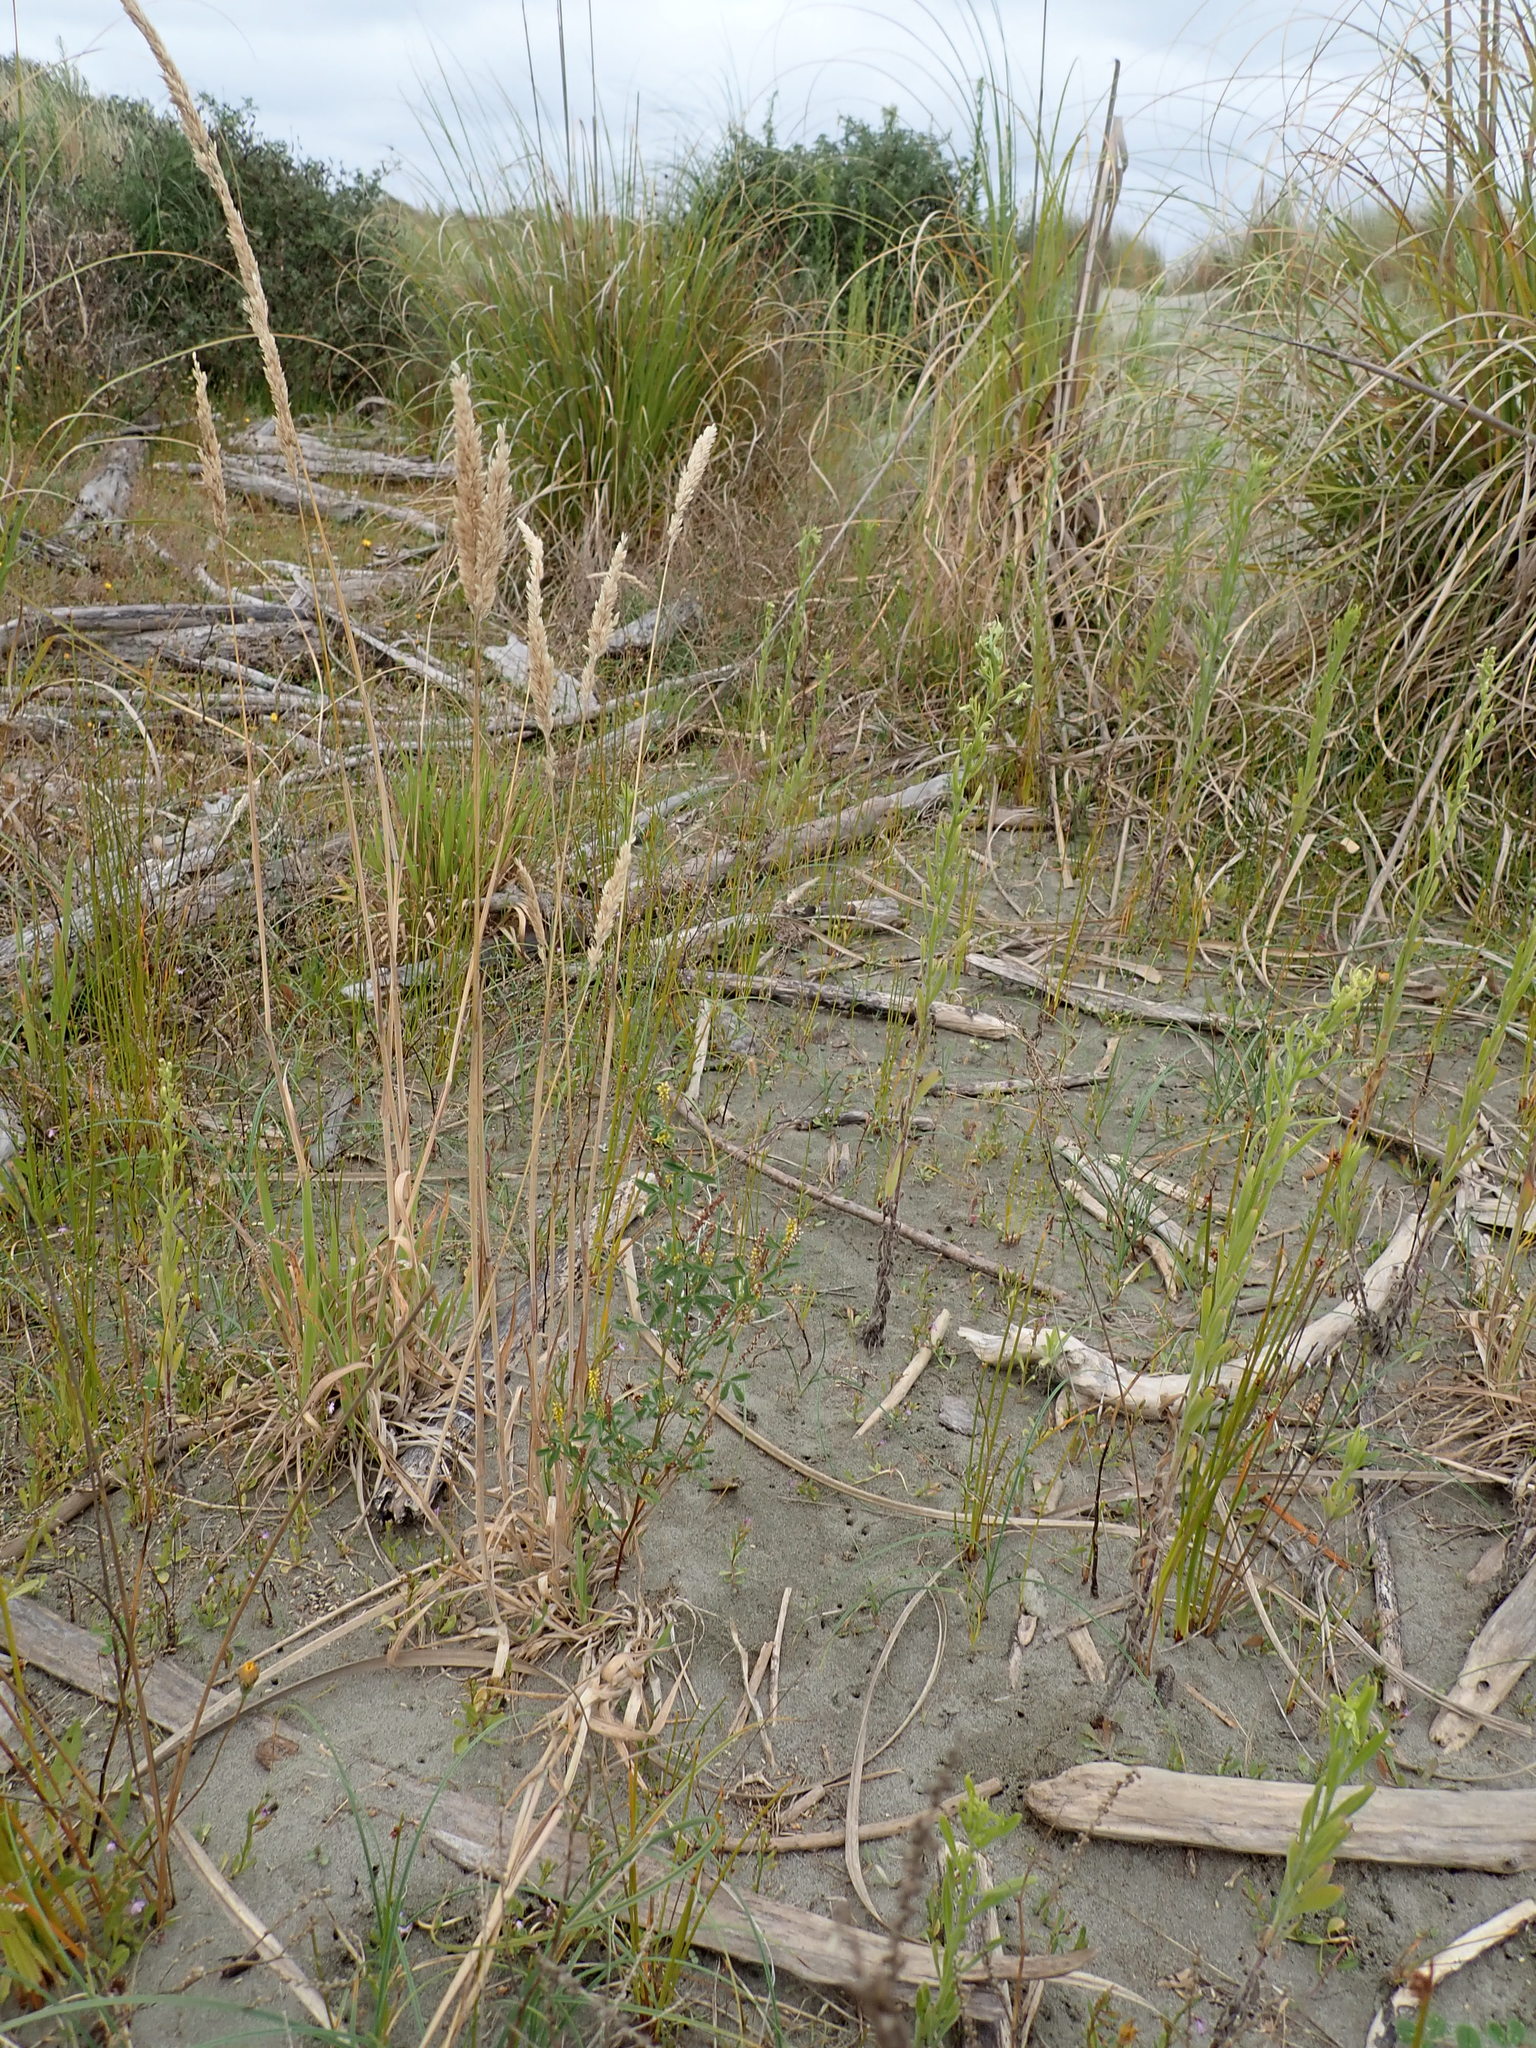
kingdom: Plantae
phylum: Tracheophyta
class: Magnoliopsida
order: Fabales
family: Fabaceae
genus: Melilotus
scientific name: Melilotus indicus
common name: Small melilot
